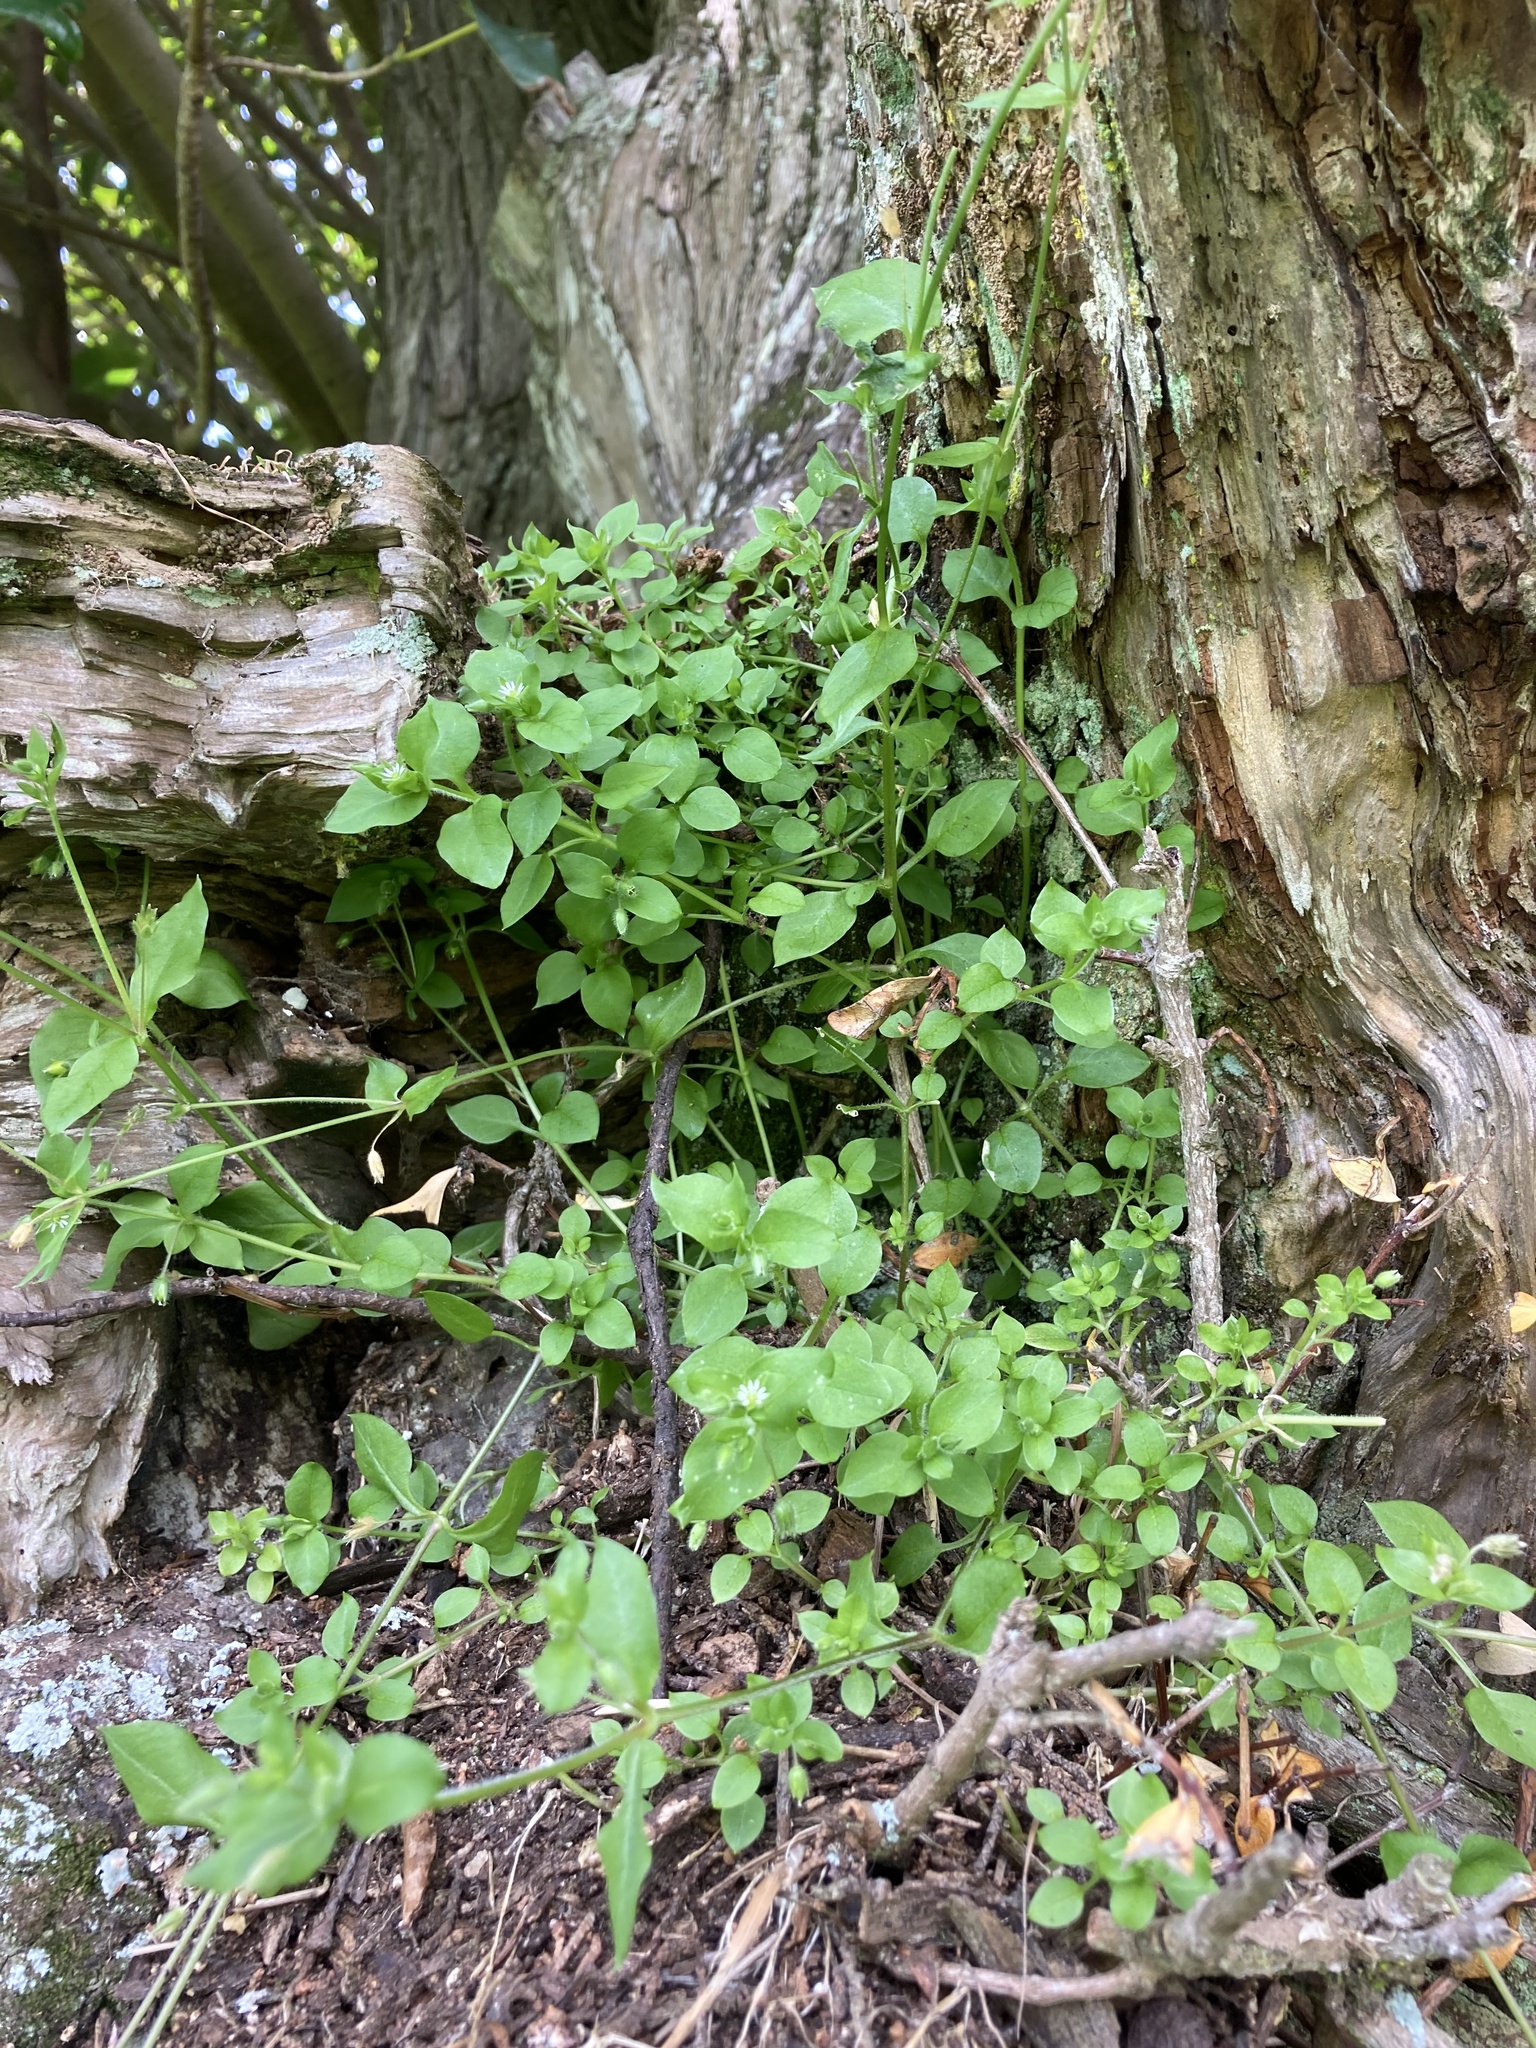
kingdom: Plantae
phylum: Tracheophyta
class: Magnoliopsida
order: Caryophyllales
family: Caryophyllaceae
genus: Stellaria
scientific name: Stellaria media
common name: Common chickweed
